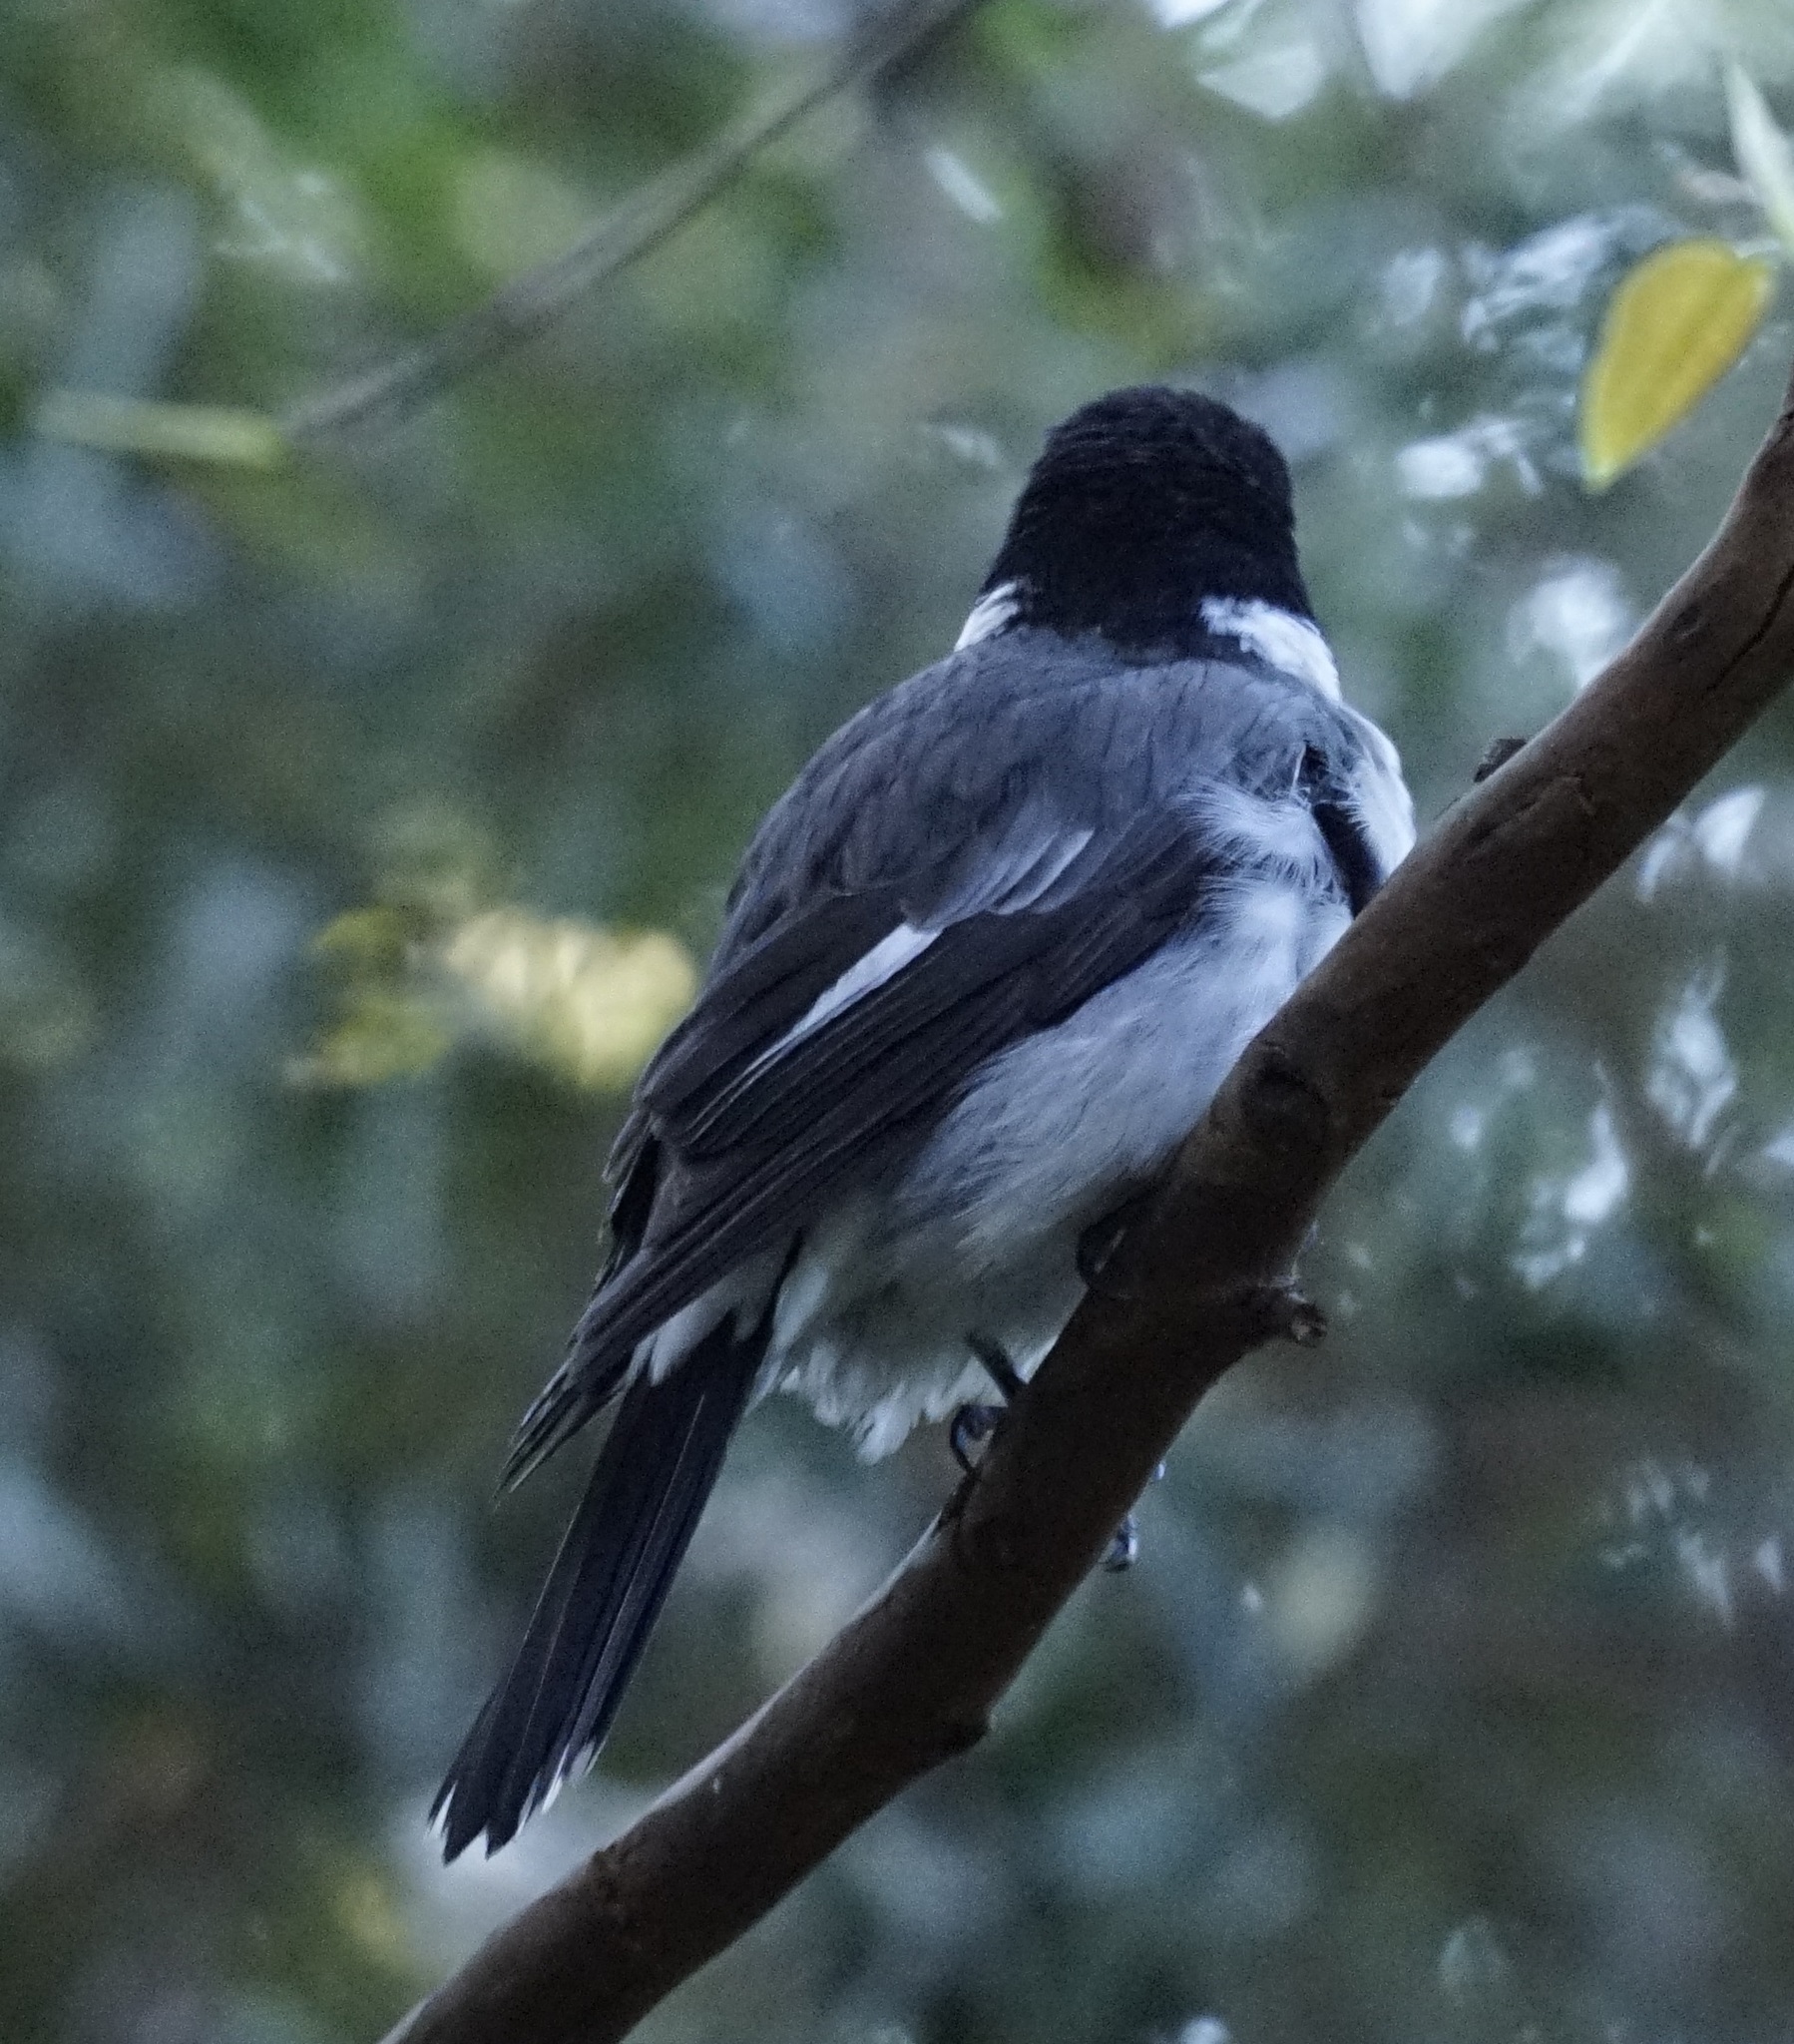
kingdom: Animalia
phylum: Chordata
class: Aves
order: Passeriformes
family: Cracticidae
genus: Cracticus
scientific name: Cracticus torquatus
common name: Grey butcherbird
